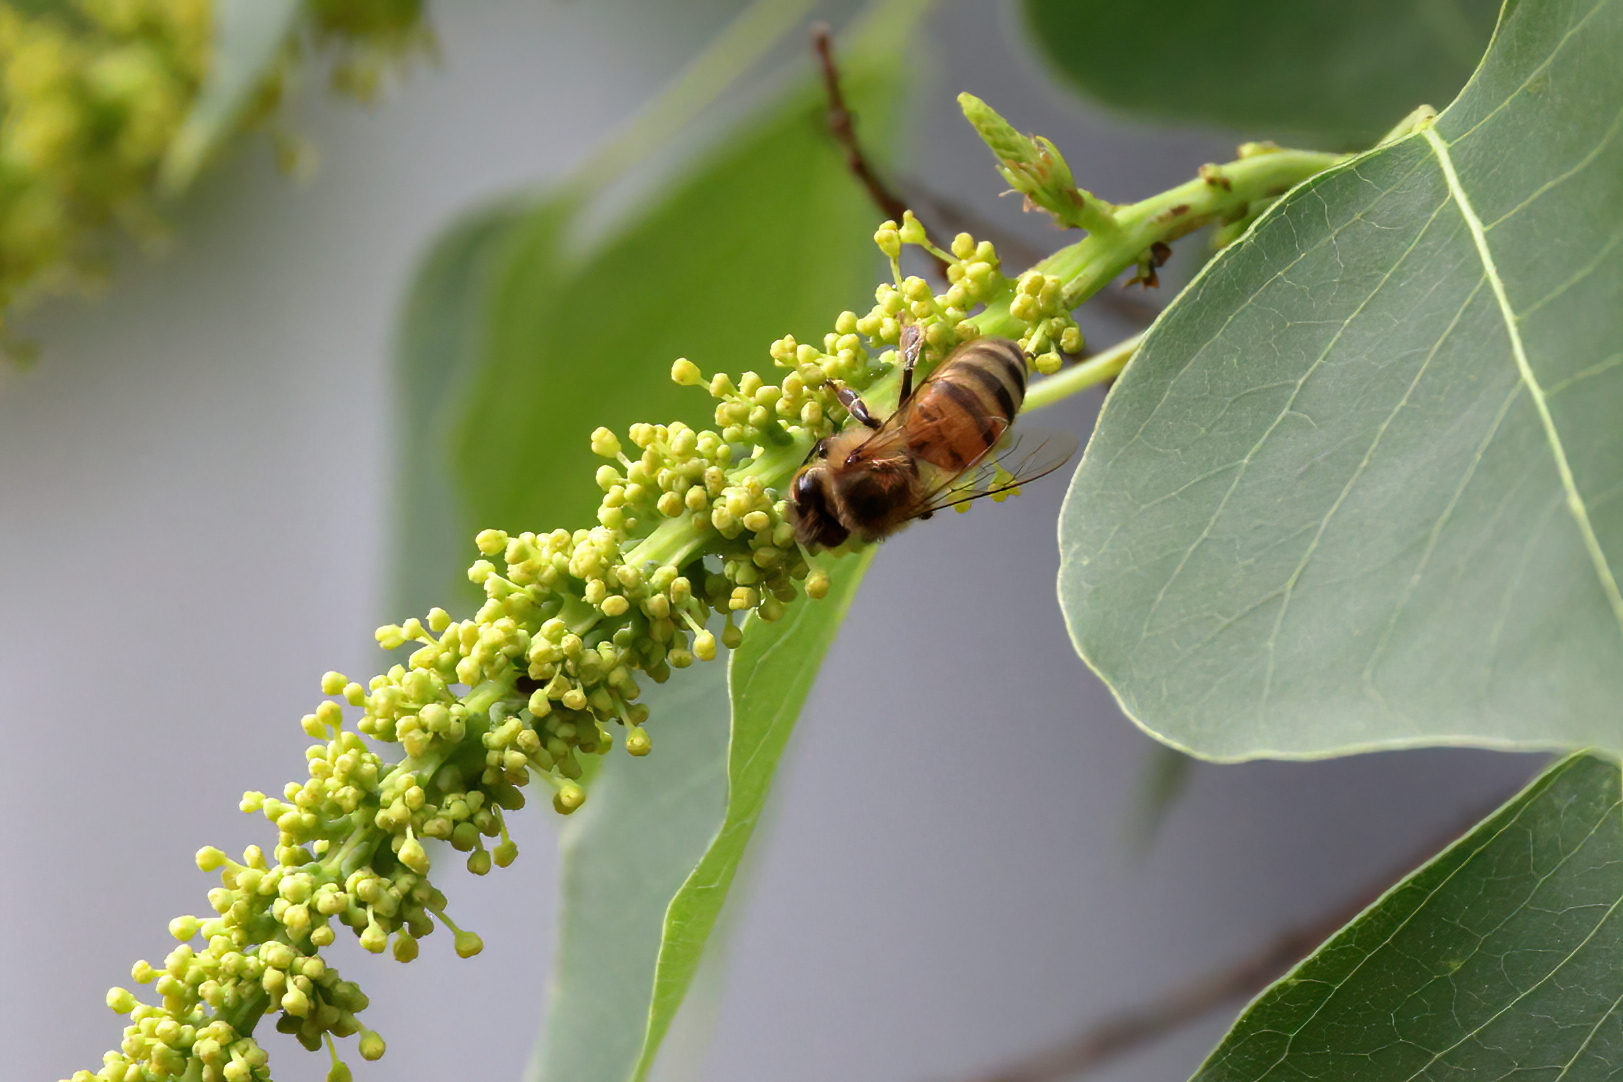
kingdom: Animalia
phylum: Arthropoda
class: Insecta
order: Hymenoptera
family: Apidae
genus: Apis
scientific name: Apis mellifera
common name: Honey bee
